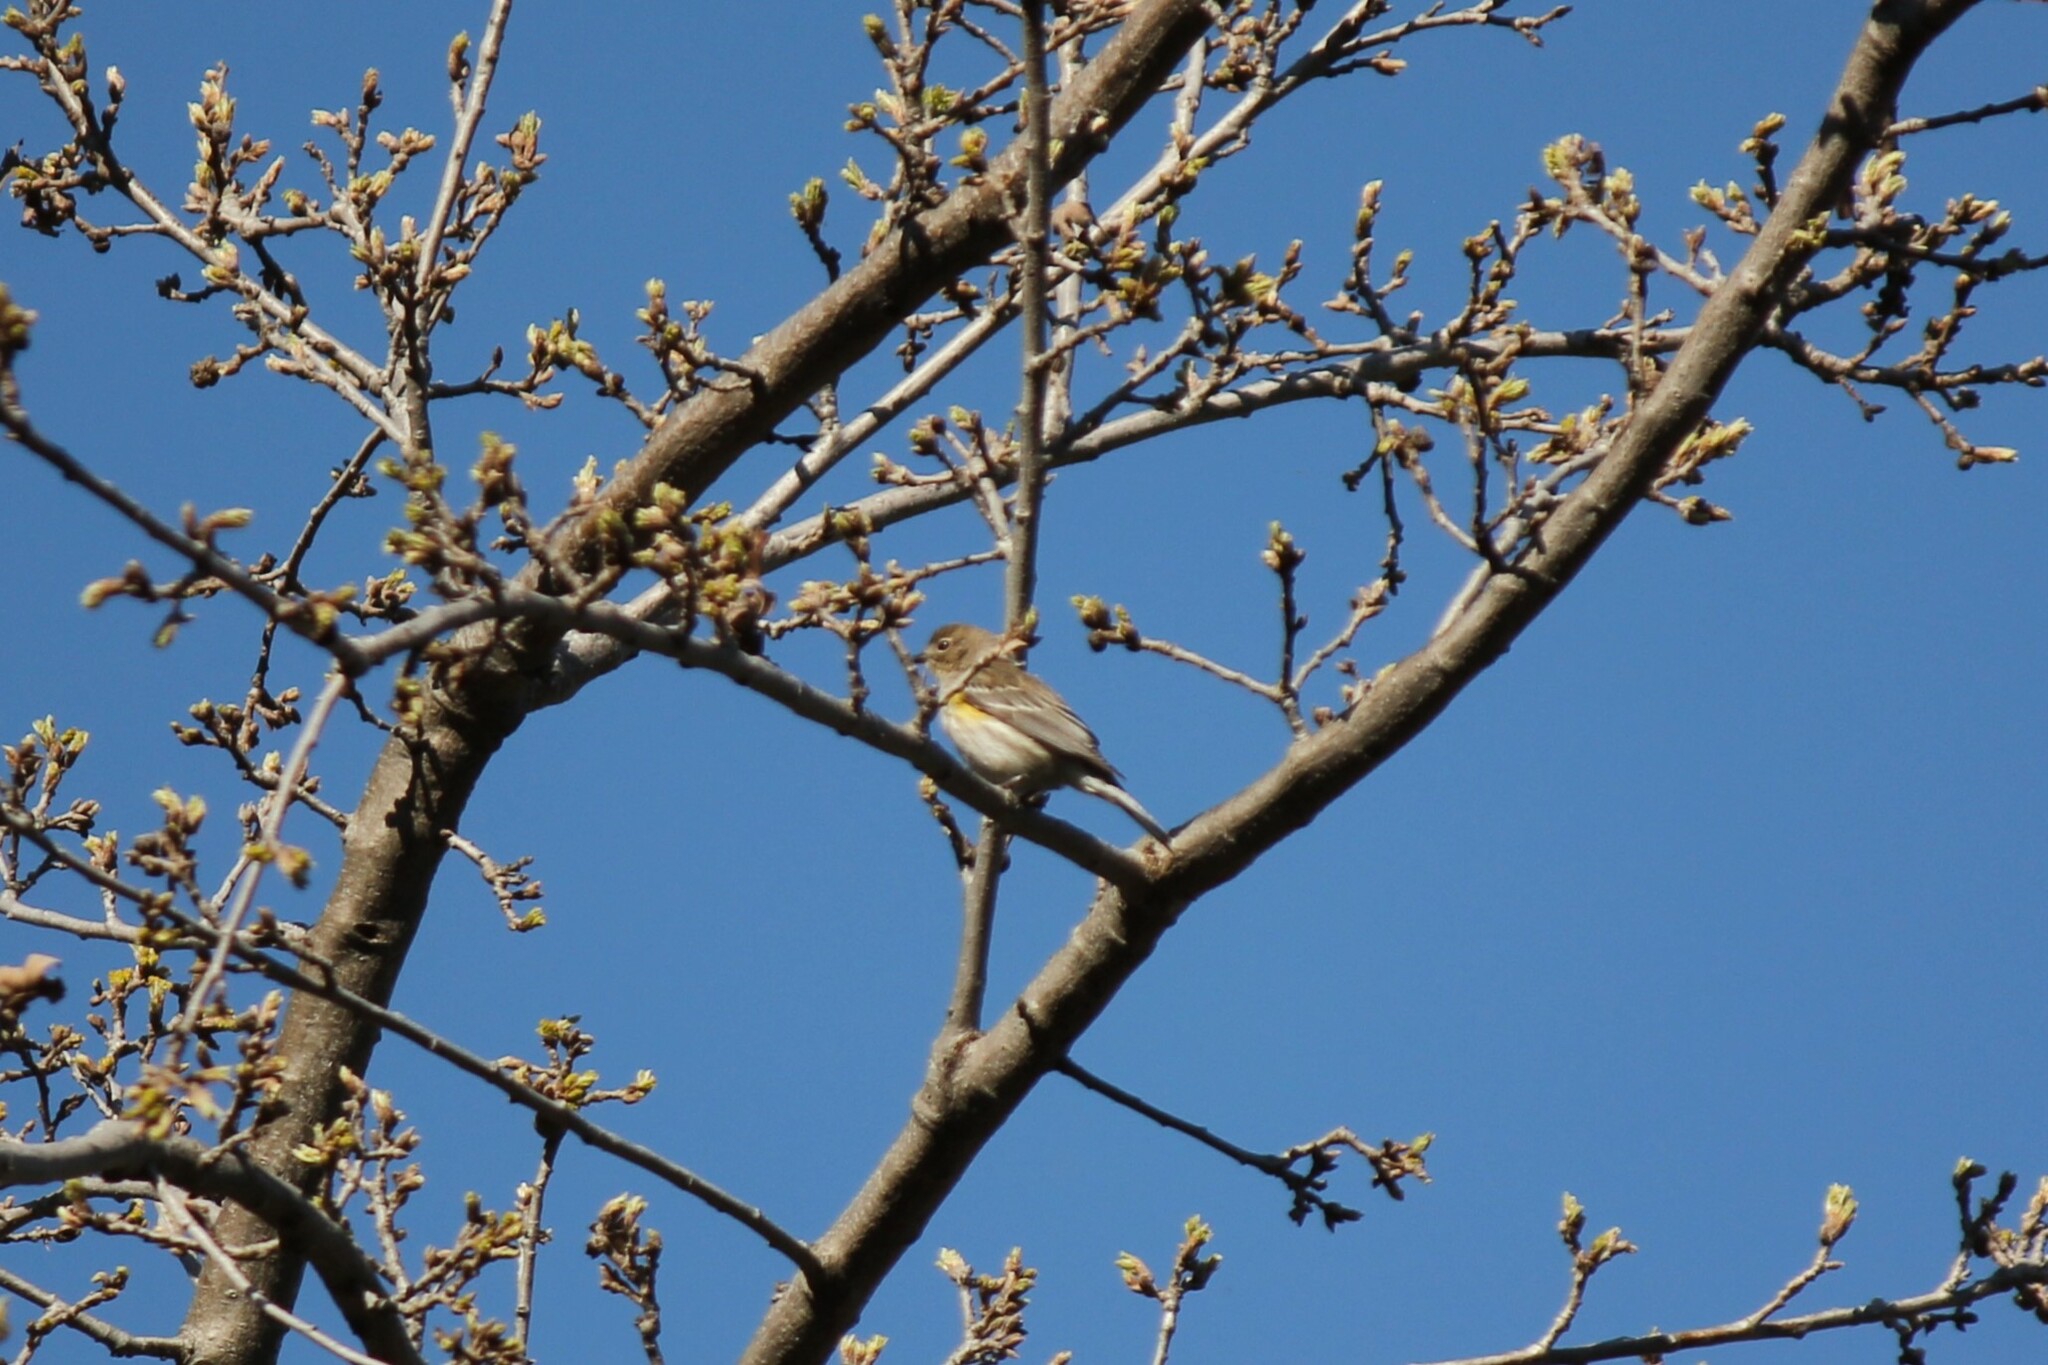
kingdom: Animalia
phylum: Chordata
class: Aves
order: Passeriformes
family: Parulidae
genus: Setophaga
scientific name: Setophaga coronata
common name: Myrtle warbler
